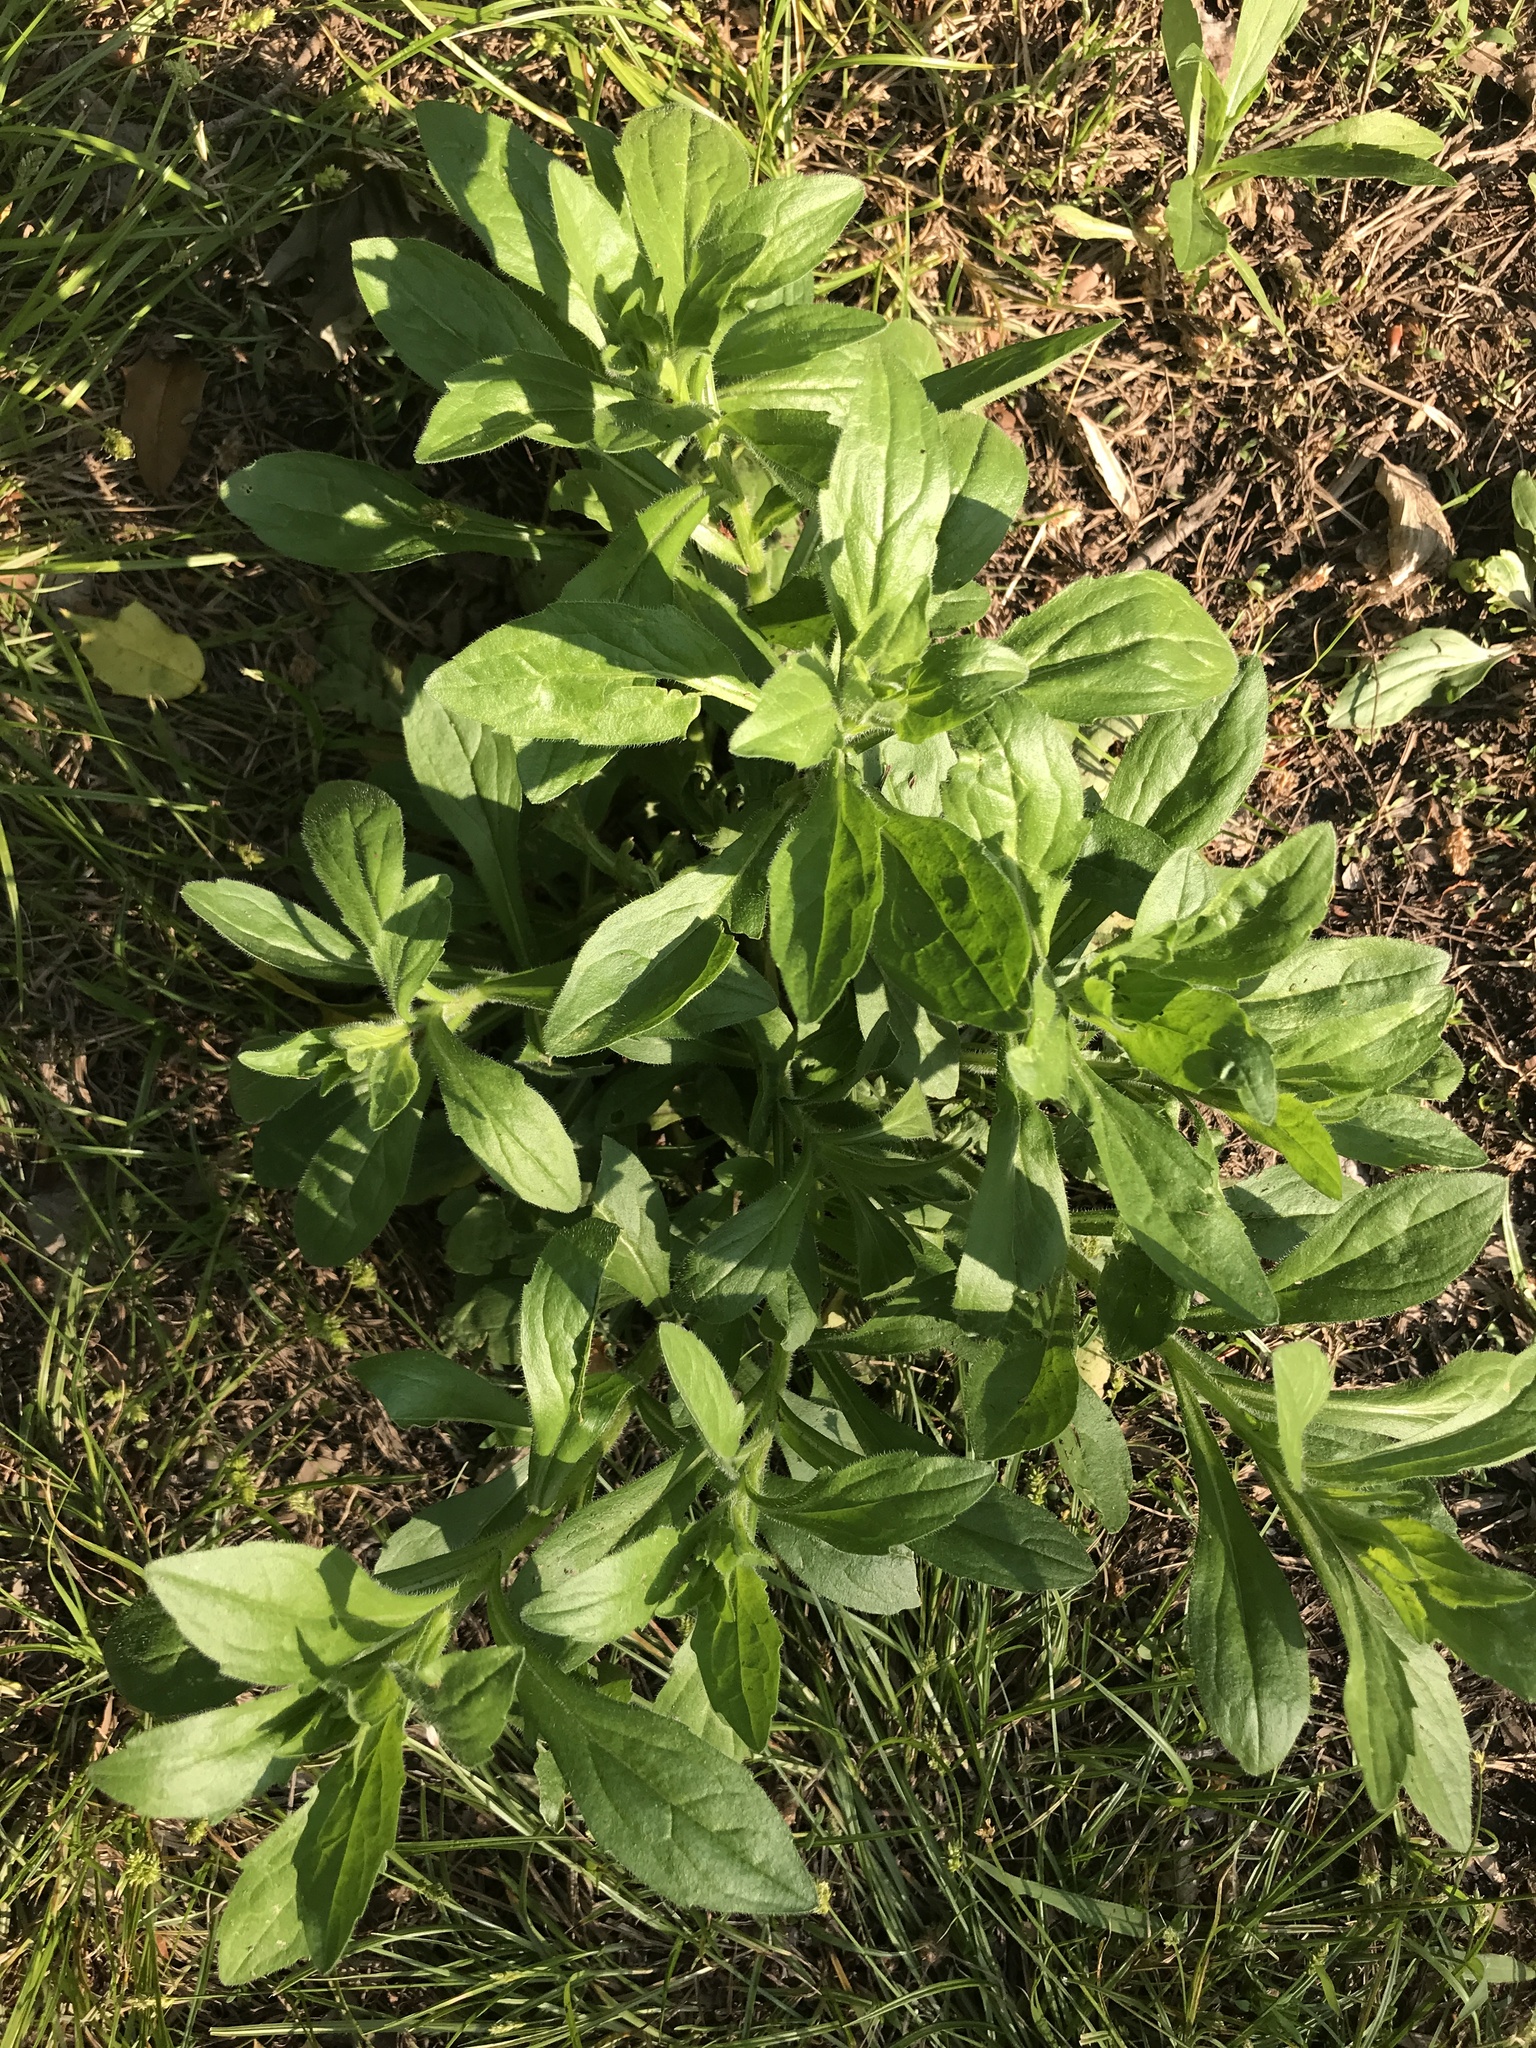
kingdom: Plantae
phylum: Tracheophyta
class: Magnoliopsida
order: Asterales
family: Asteraceae
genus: Erigeron
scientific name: Erigeron annuus
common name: Tall fleabane
